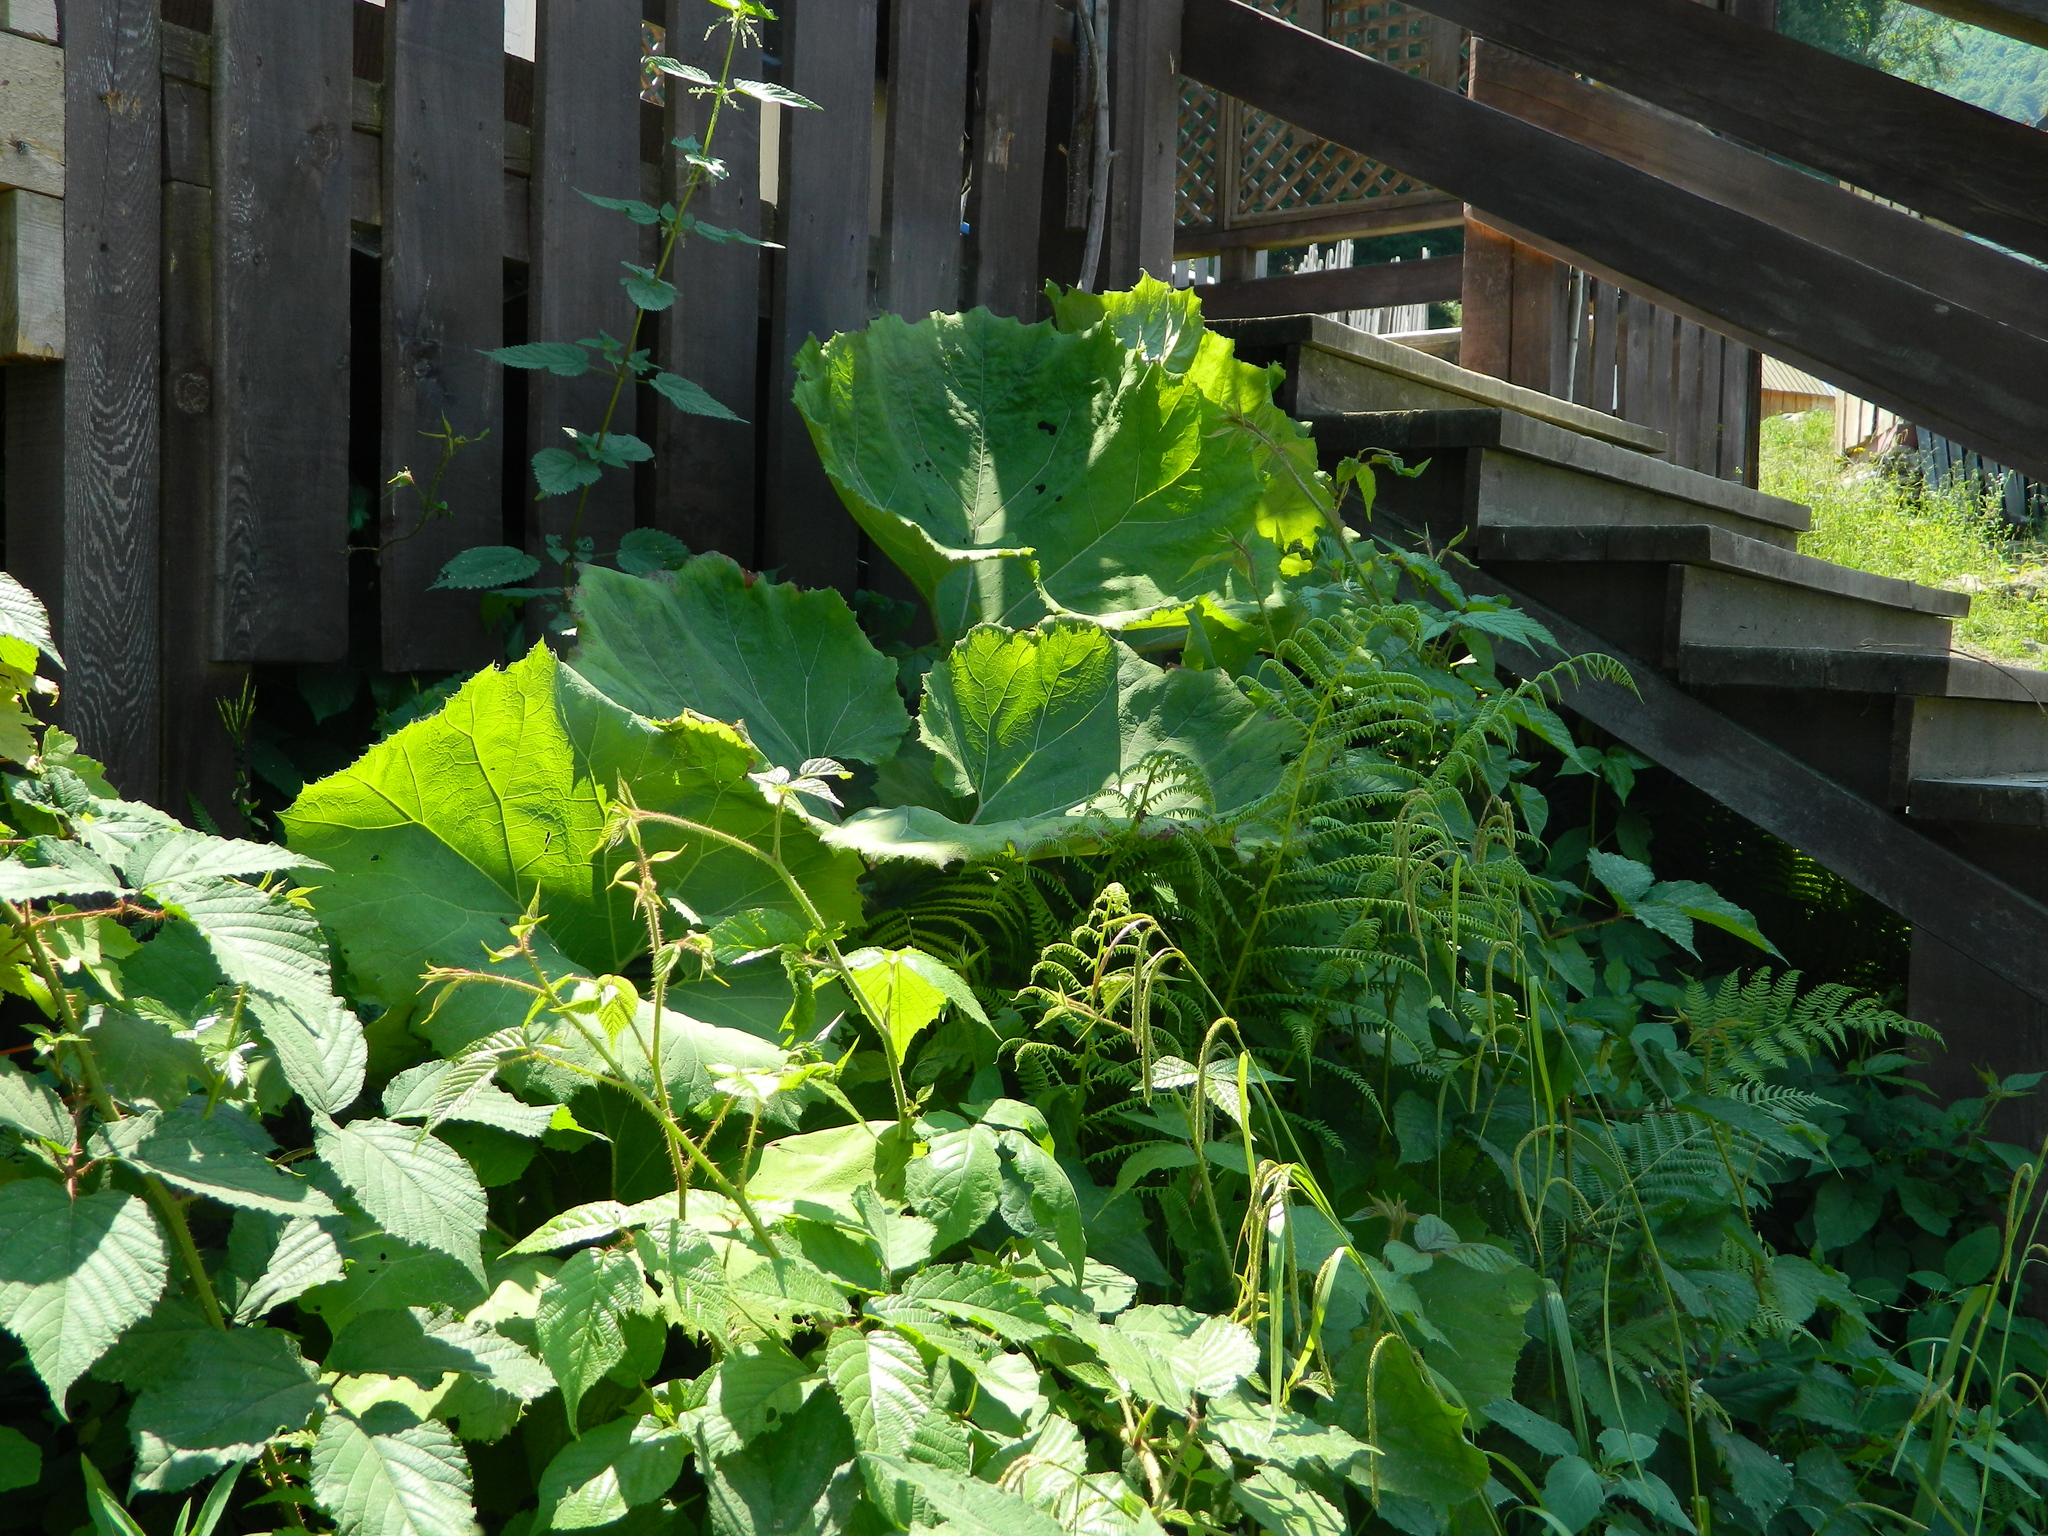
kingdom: Plantae
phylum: Tracheophyta
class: Magnoliopsida
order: Asterales
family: Asteraceae
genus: Petasites
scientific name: Petasites hybridus
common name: Butterbur
